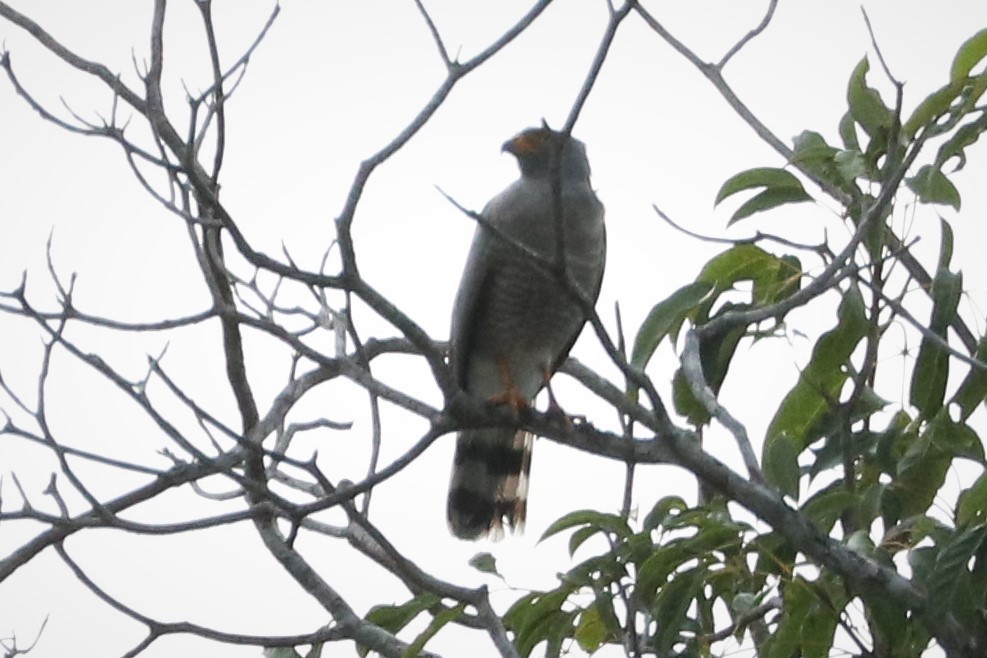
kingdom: Animalia
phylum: Chordata
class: Aves
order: Accipitriformes
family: Accipitridae
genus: Rupornis
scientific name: Rupornis magnirostris
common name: Roadside hawk
